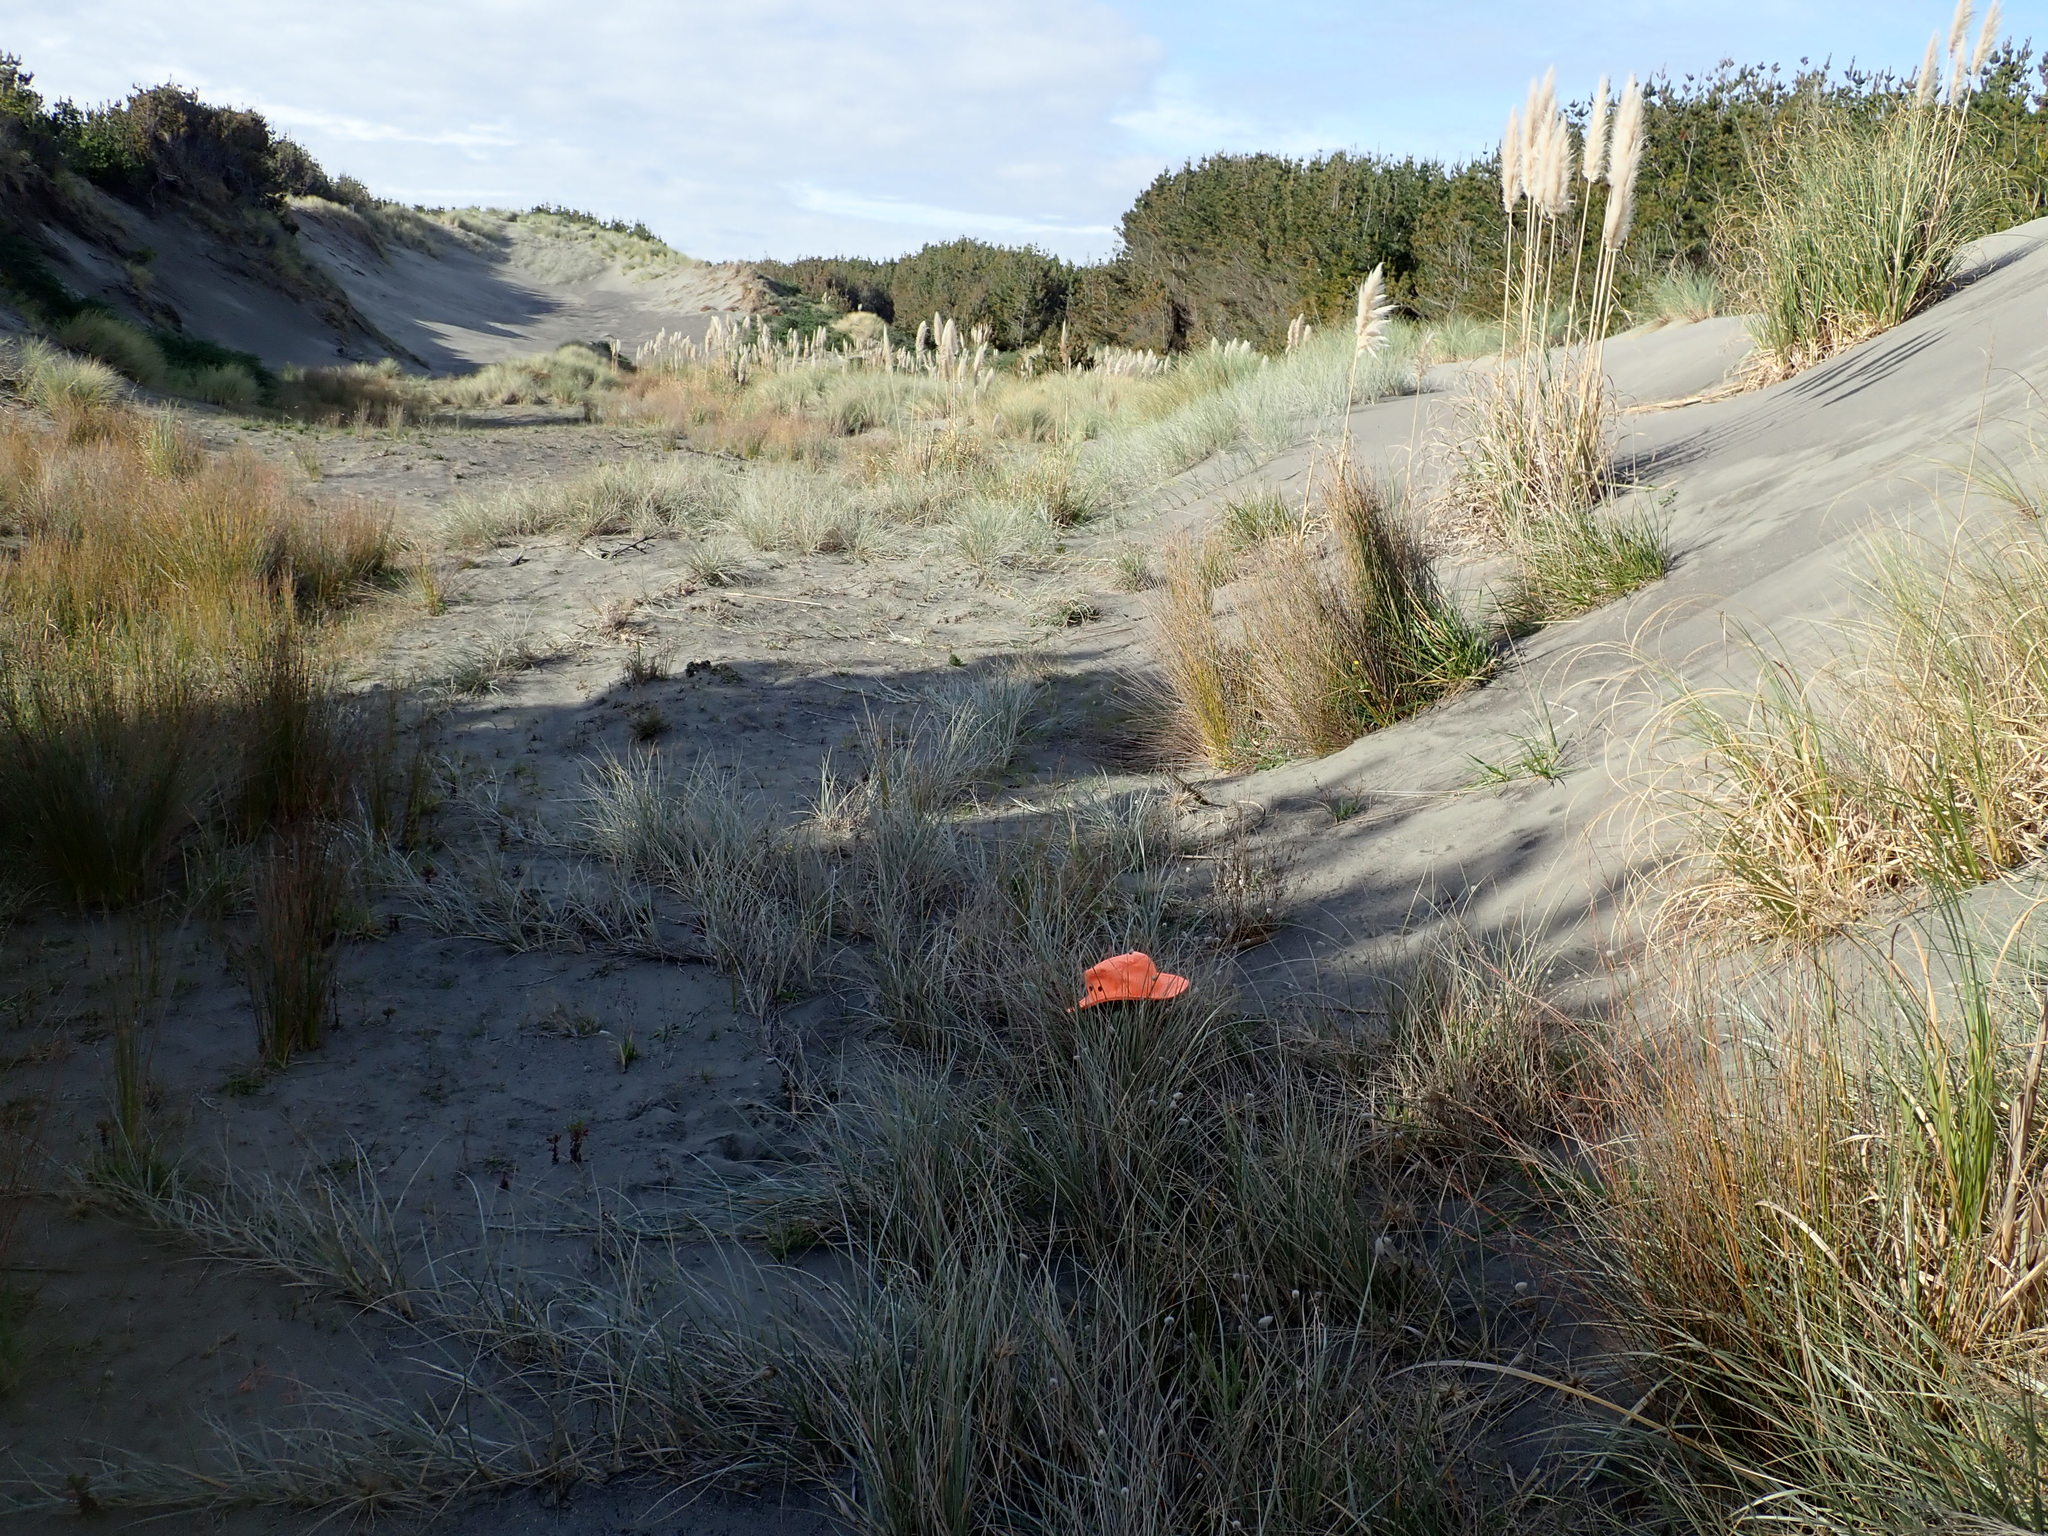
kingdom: Animalia
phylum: Arthropoda
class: Arachnida
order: Araneae
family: Theridiidae
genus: Latrodectus
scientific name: Latrodectus katipo
